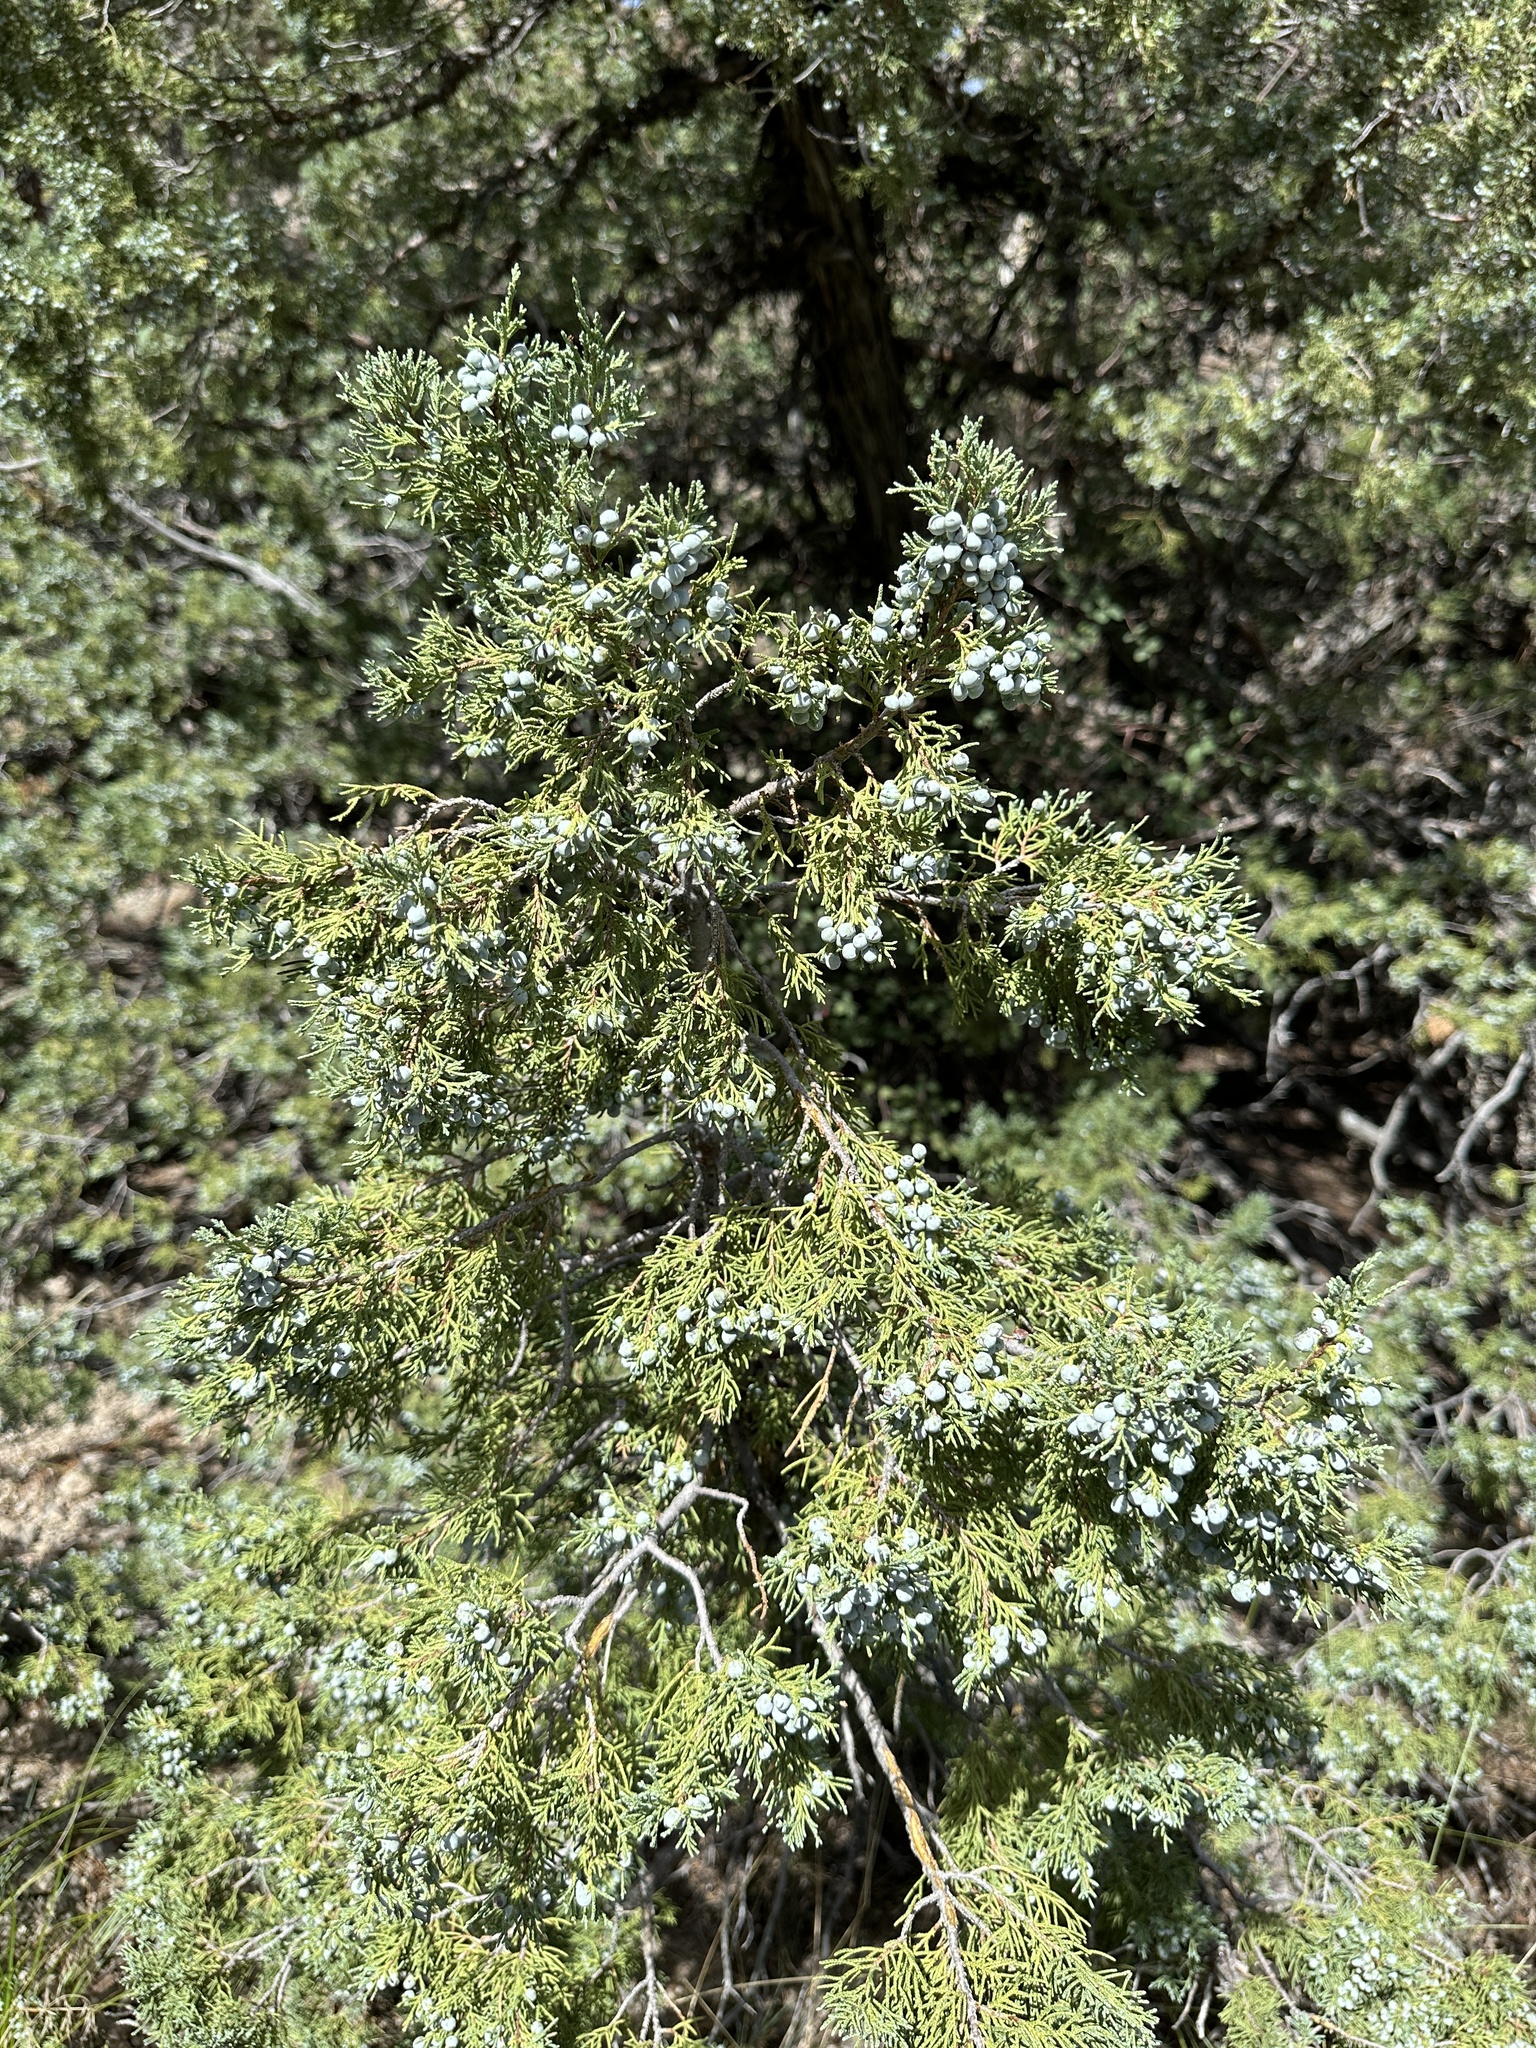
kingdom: Plantae
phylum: Tracheophyta
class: Pinopsida
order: Pinales
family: Cupressaceae
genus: Juniperus
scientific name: Juniperus scopulorum
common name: Rocky mountain juniper
